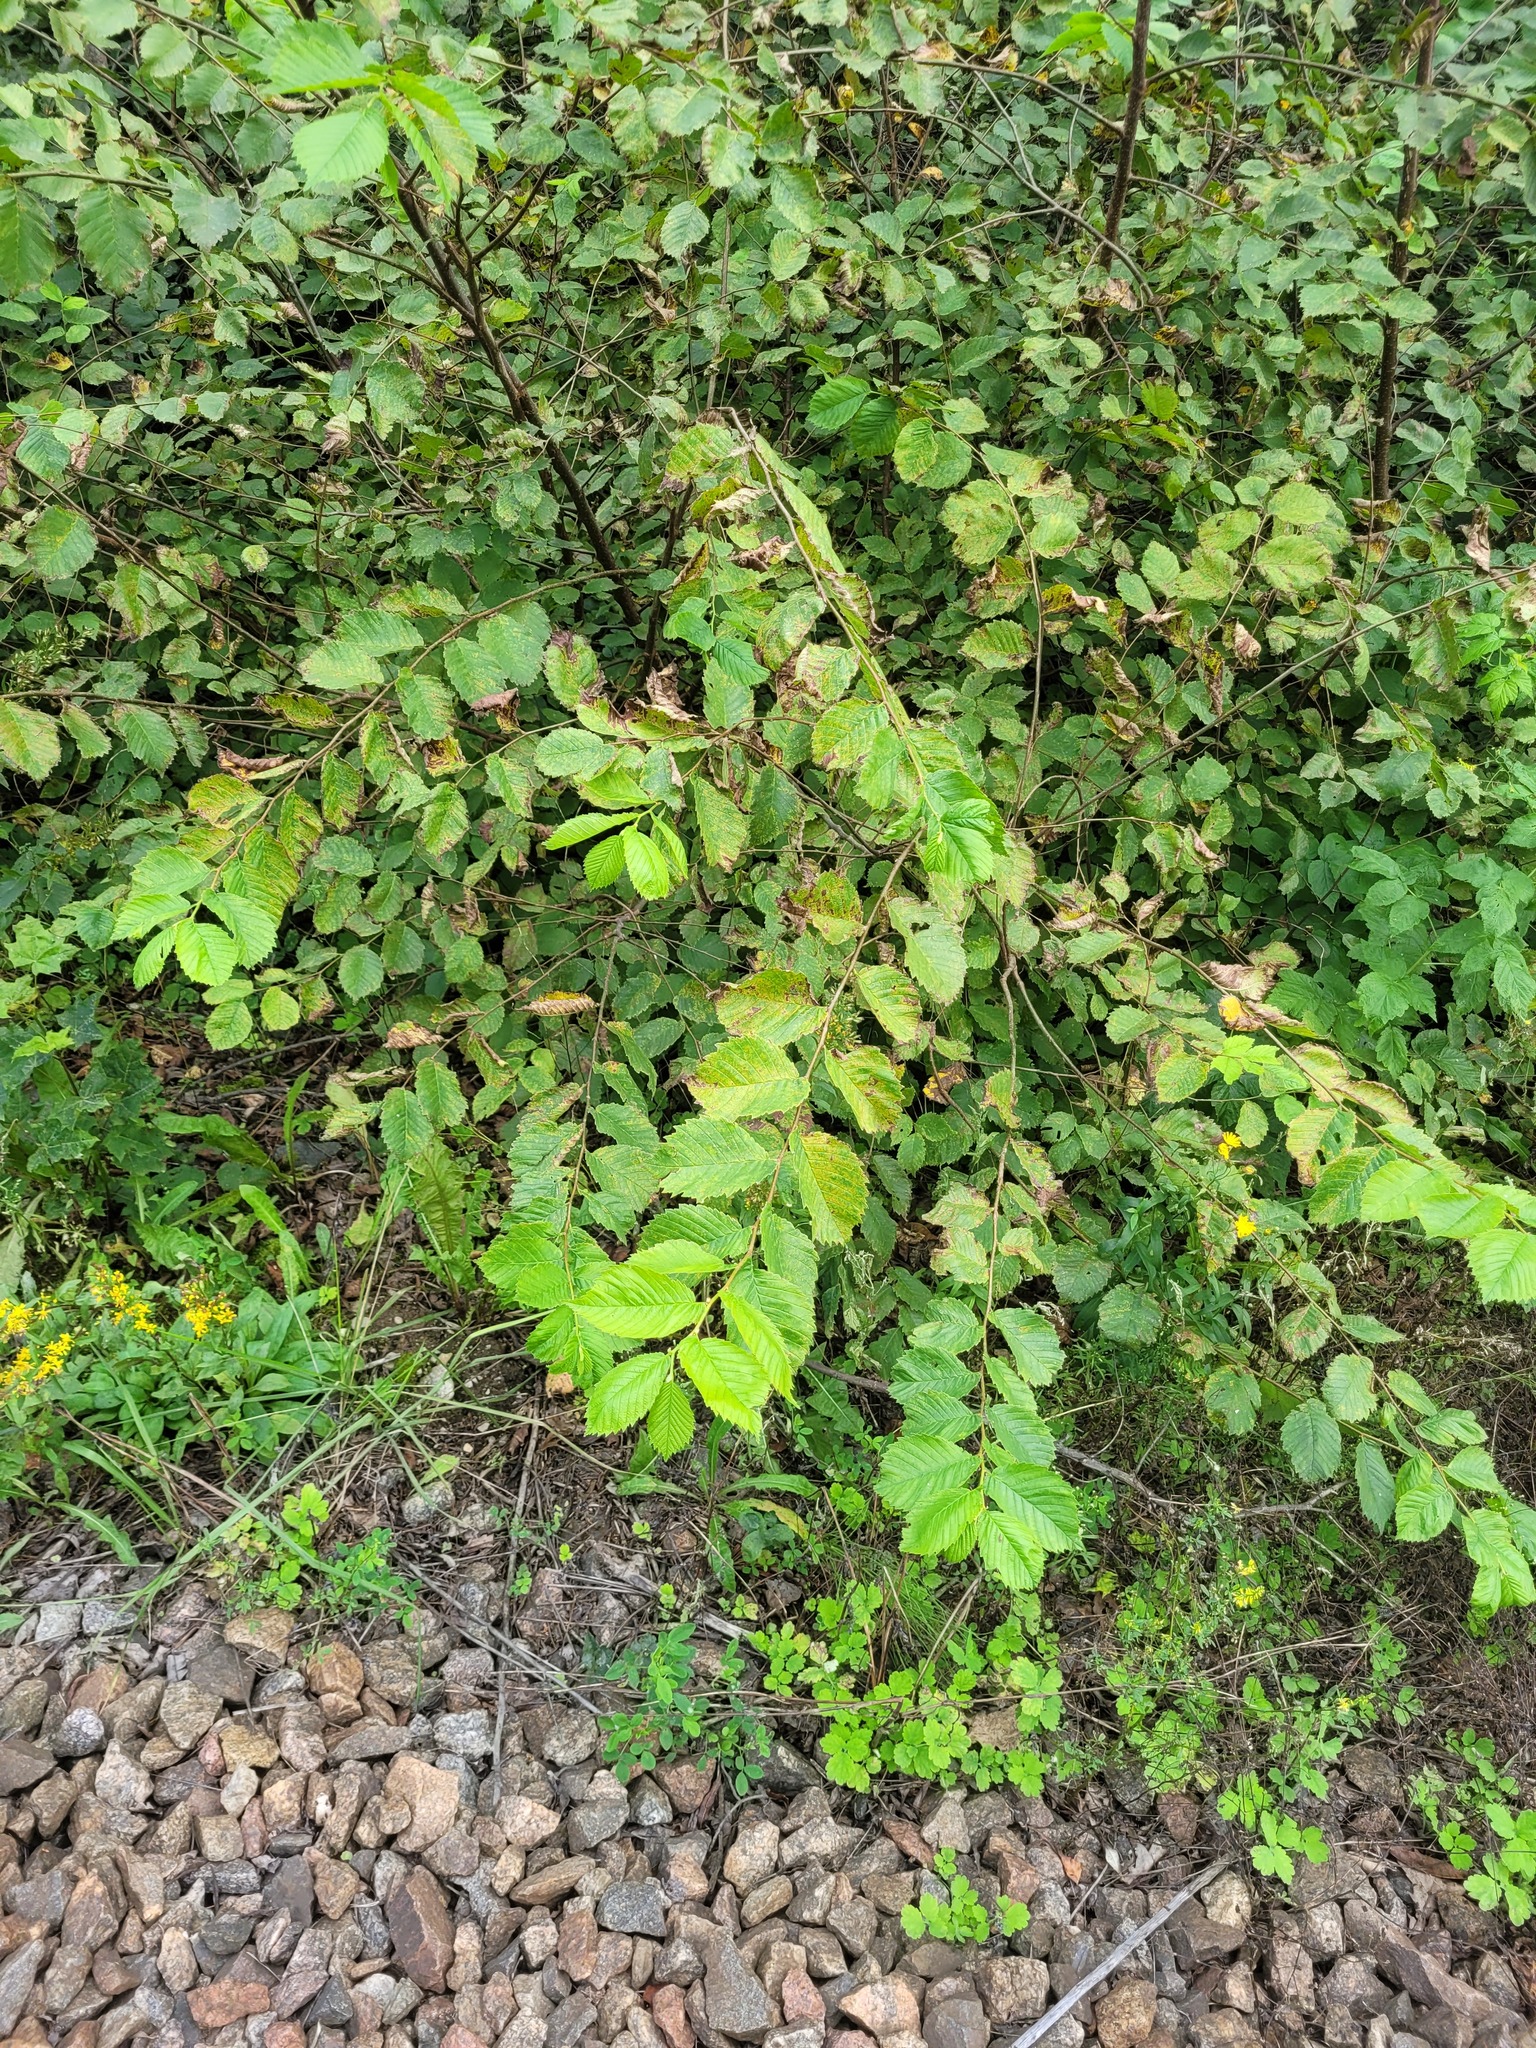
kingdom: Plantae
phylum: Tracheophyta
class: Magnoliopsida
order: Rosales
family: Ulmaceae
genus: Ulmus
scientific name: Ulmus laevis
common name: European white-elm
